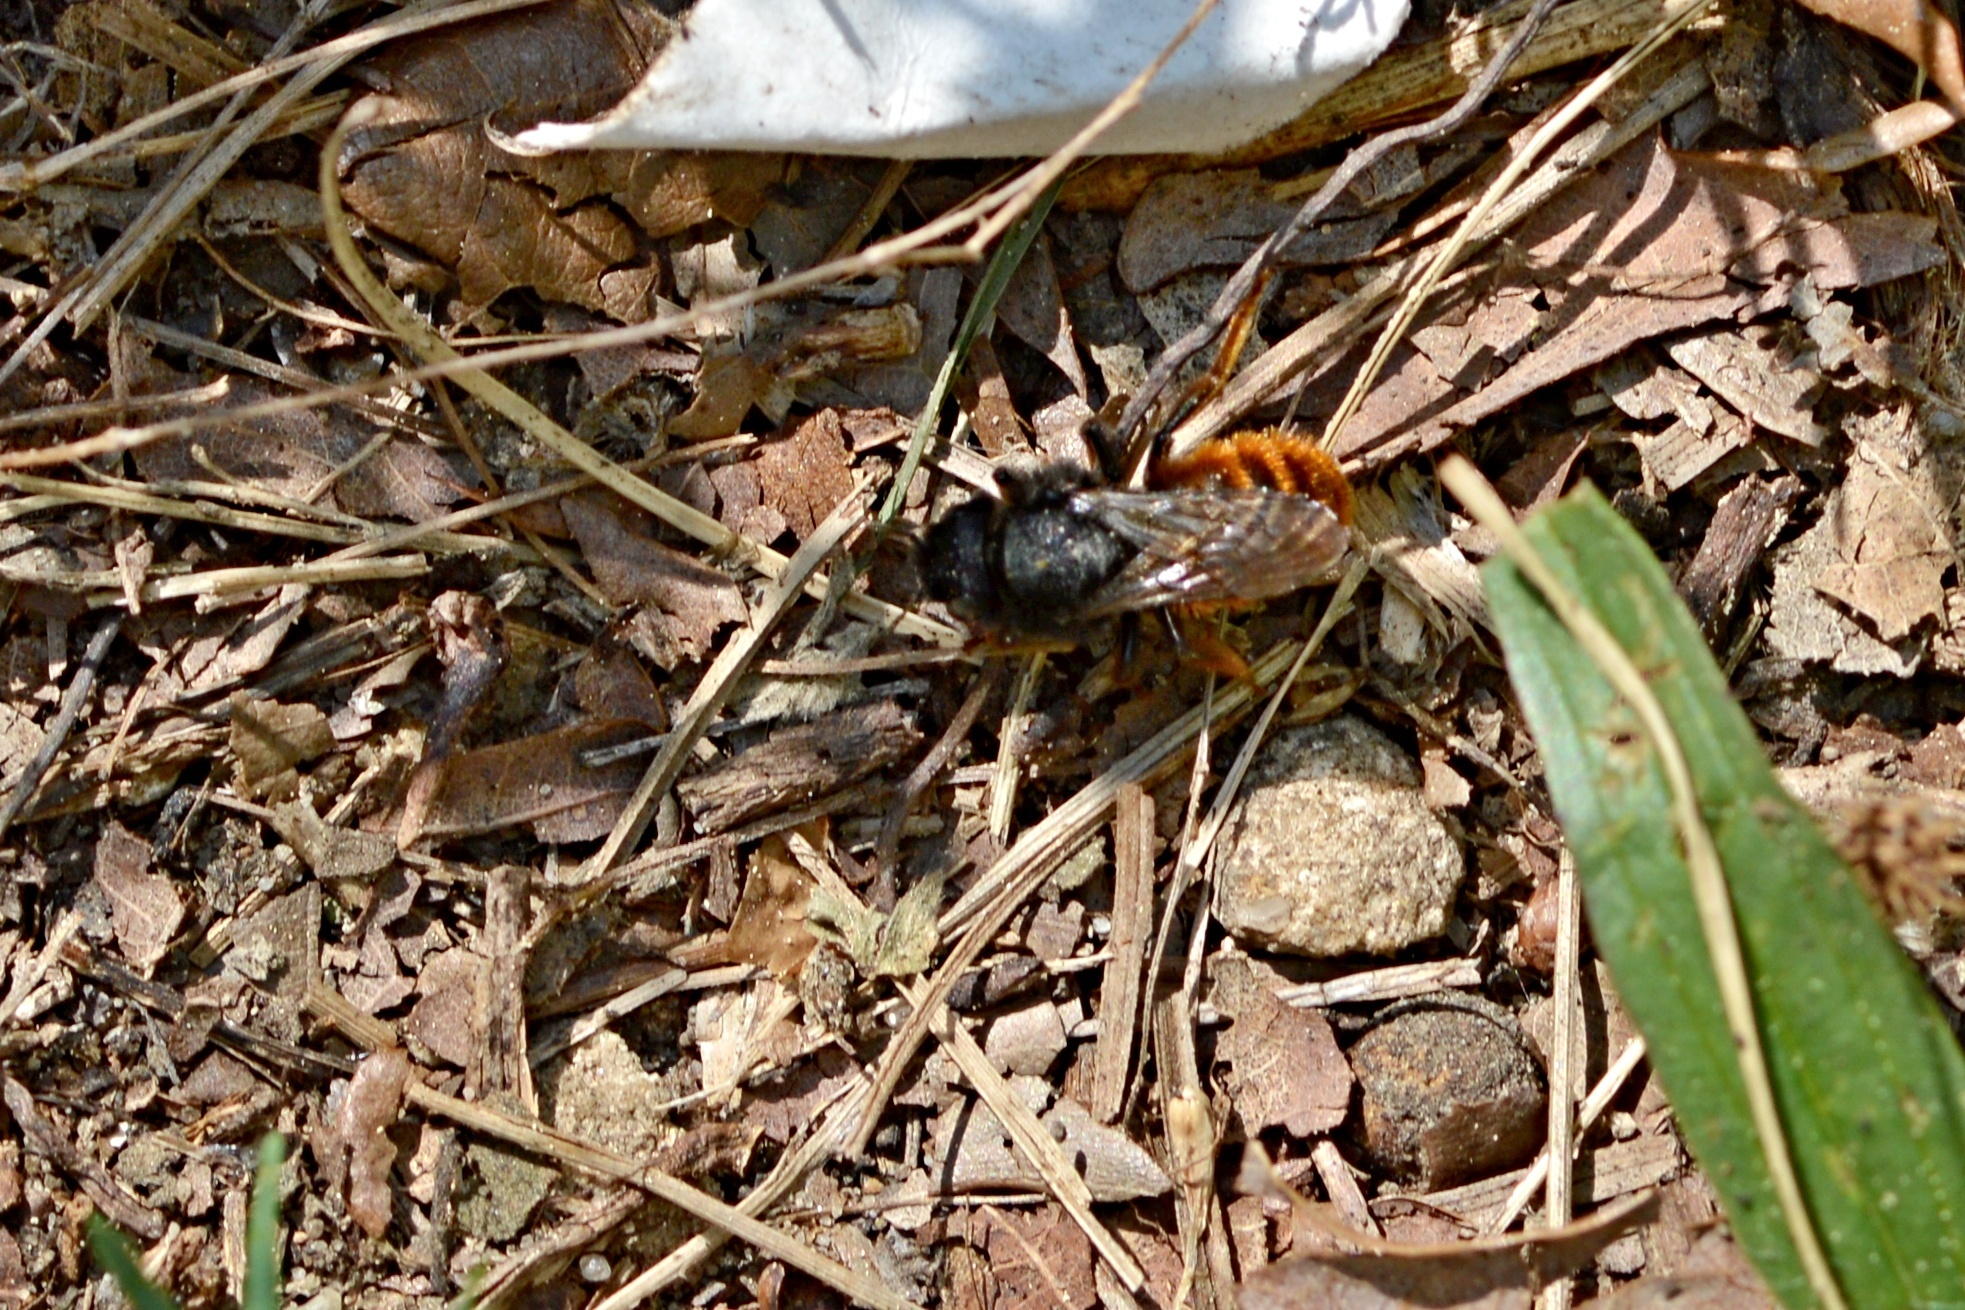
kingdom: Animalia
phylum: Arthropoda
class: Insecta
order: Hymenoptera
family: Megachilidae
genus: Osmia
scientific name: Osmia bicolor
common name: Red-tailed mason bee
